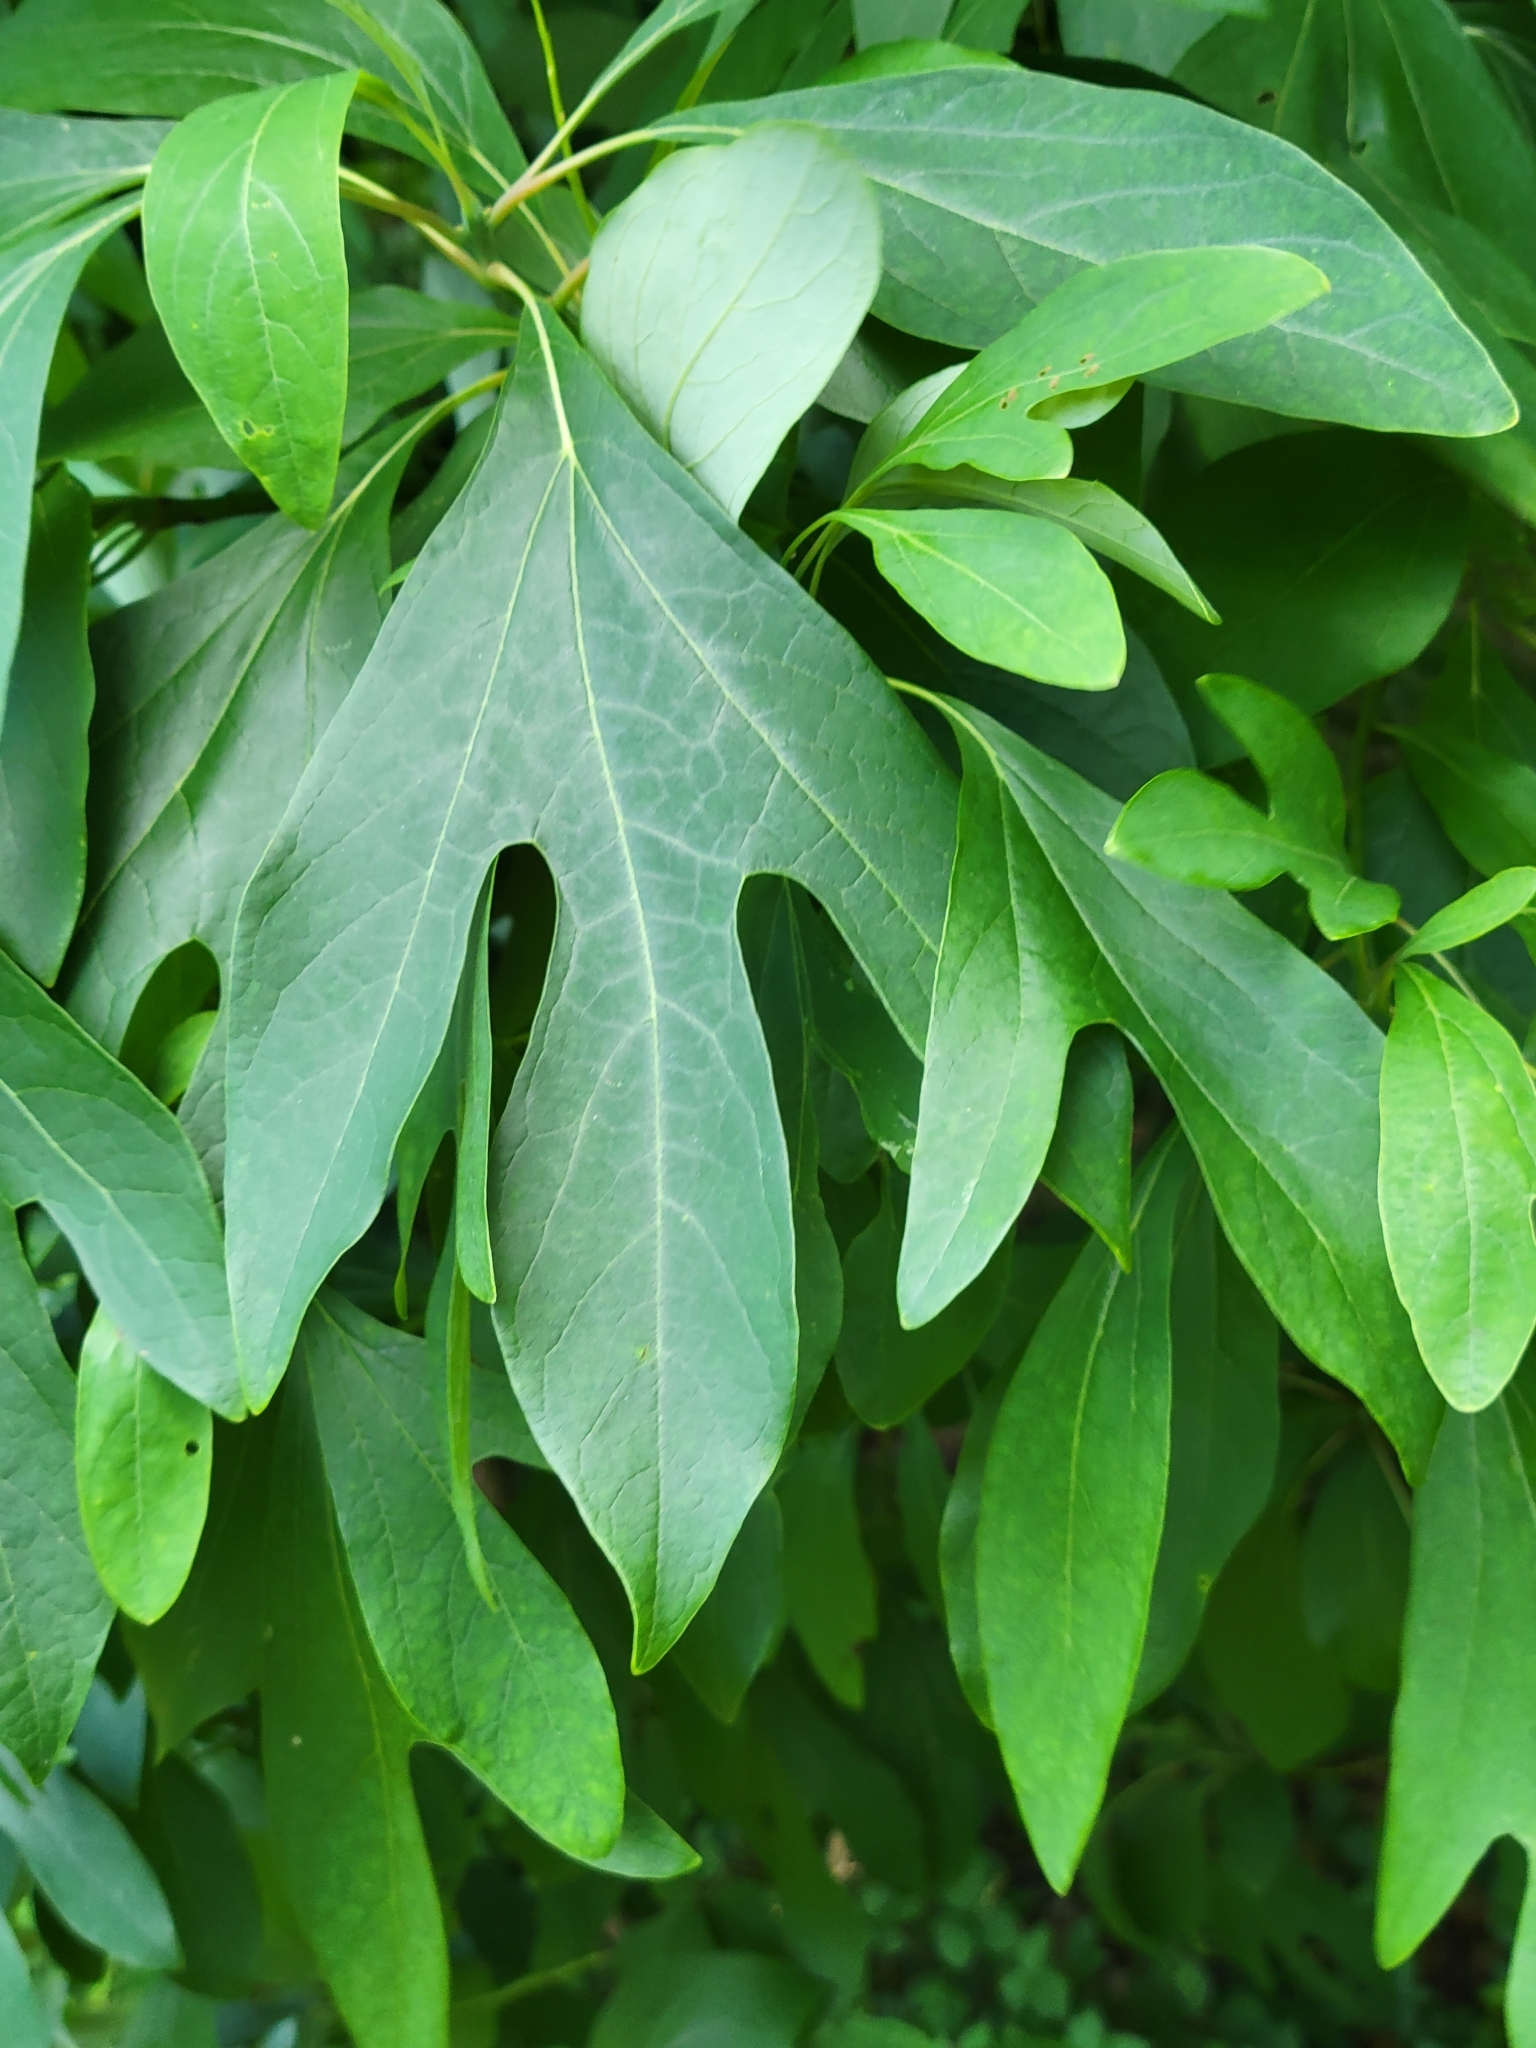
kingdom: Plantae
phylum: Tracheophyta
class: Magnoliopsida
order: Laurales
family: Lauraceae
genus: Sassafras
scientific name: Sassafras albidum
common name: Sassafras
